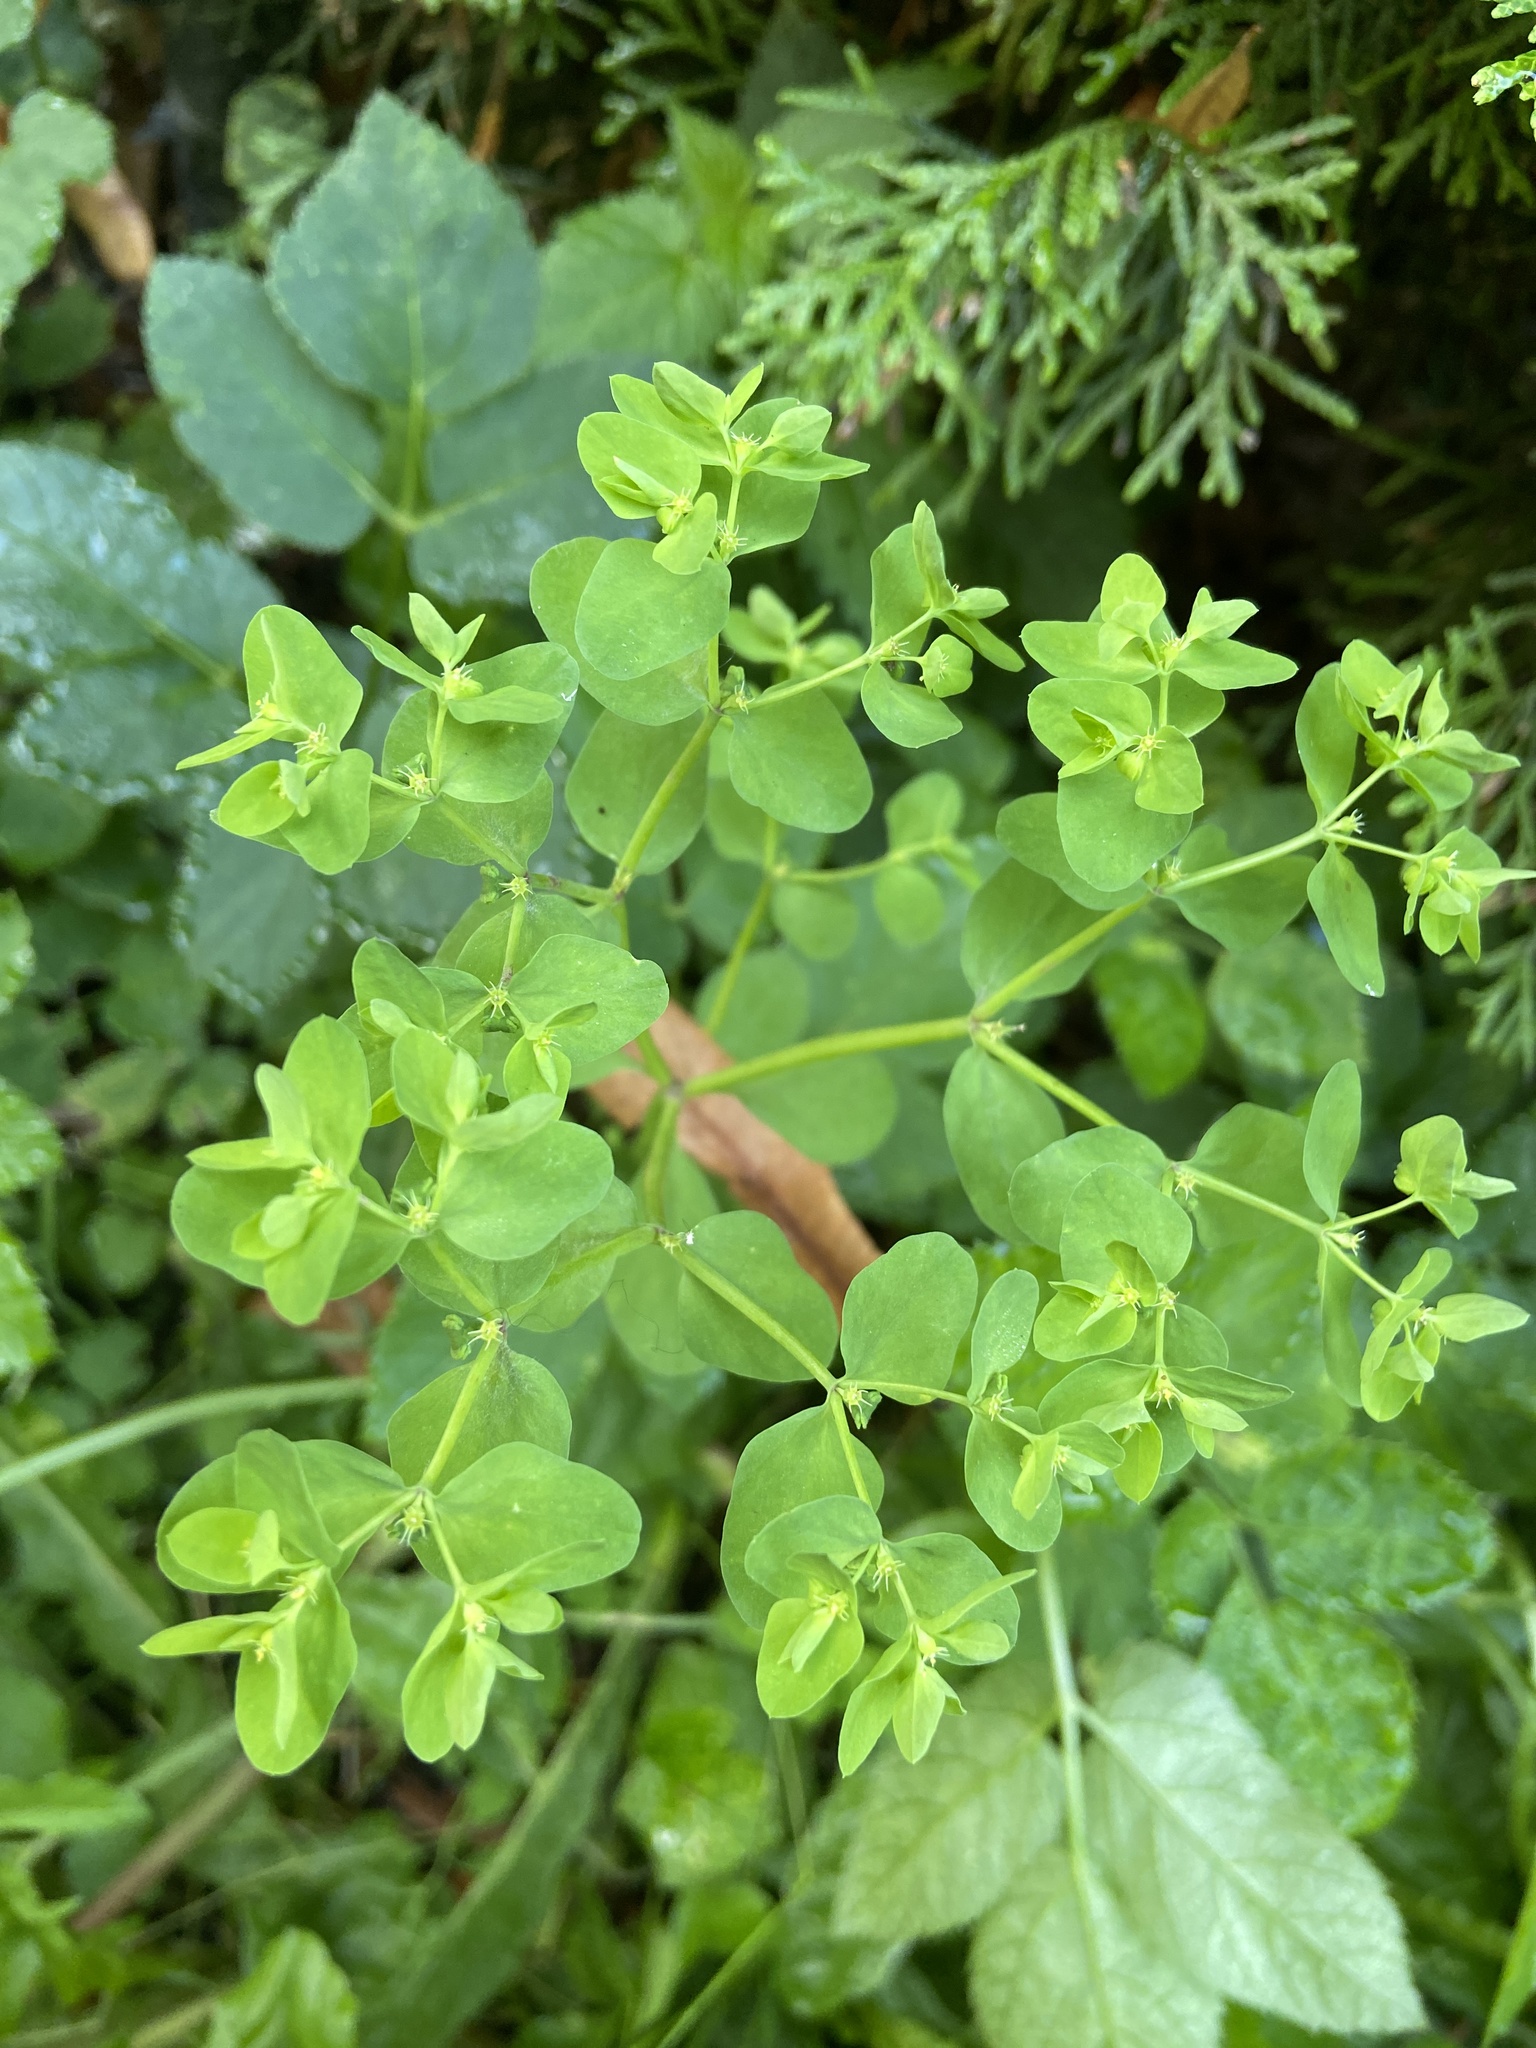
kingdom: Plantae
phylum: Tracheophyta
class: Magnoliopsida
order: Malpighiales
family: Euphorbiaceae
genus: Euphorbia
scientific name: Euphorbia peplus
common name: Petty spurge
